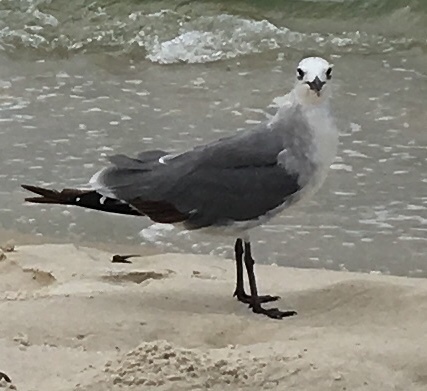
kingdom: Animalia
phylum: Chordata
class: Aves
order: Charadriiformes
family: Laridae
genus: Leucophaeus
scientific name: Leucophaeus atricilla
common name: Laughing gull
